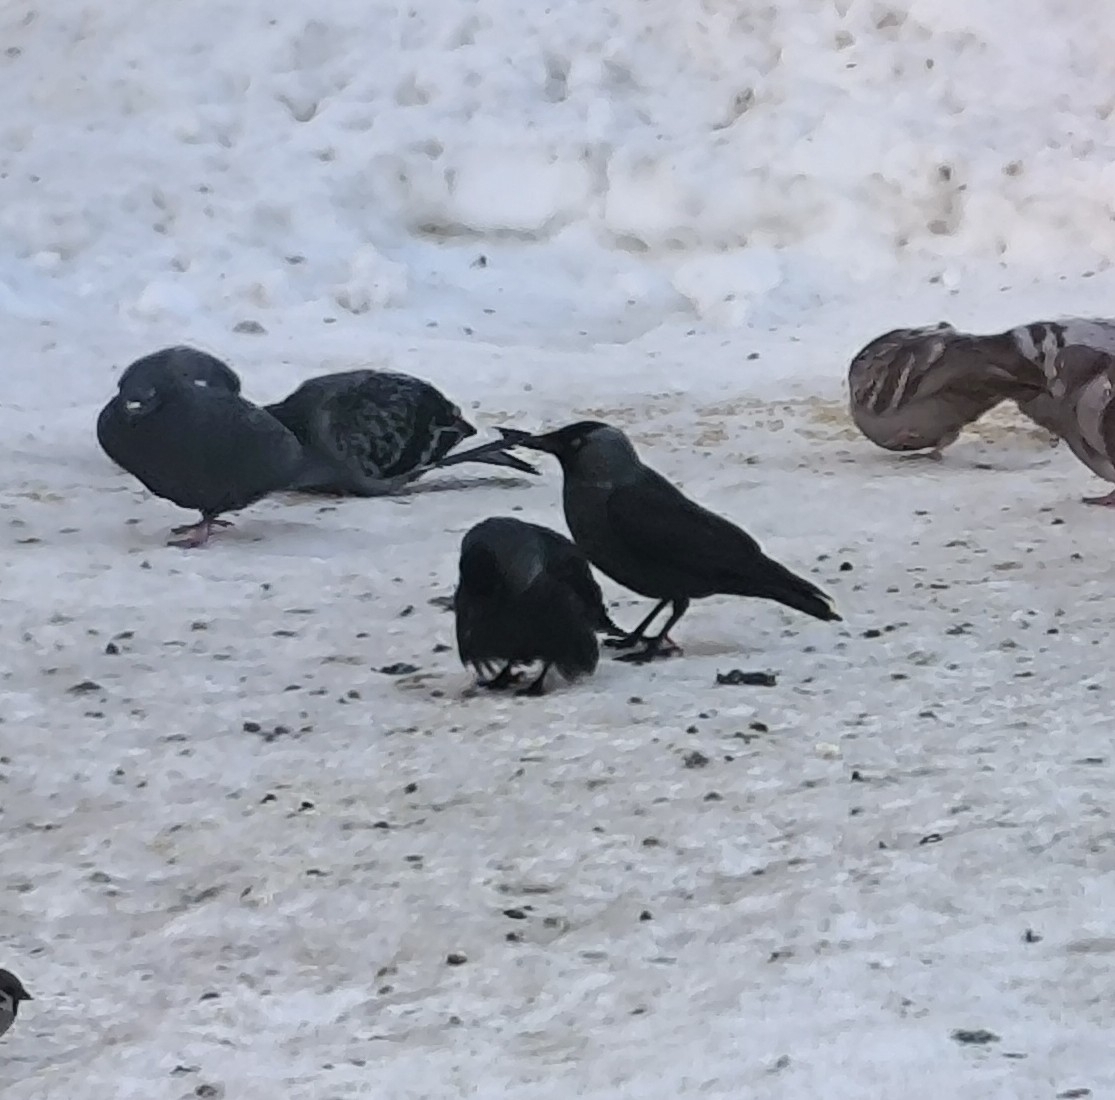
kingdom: Animalia
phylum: Chordata
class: Aves
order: Passeriformes
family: Corvidae
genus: Coloeus
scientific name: Coloeus monedula
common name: Western jackdaw
